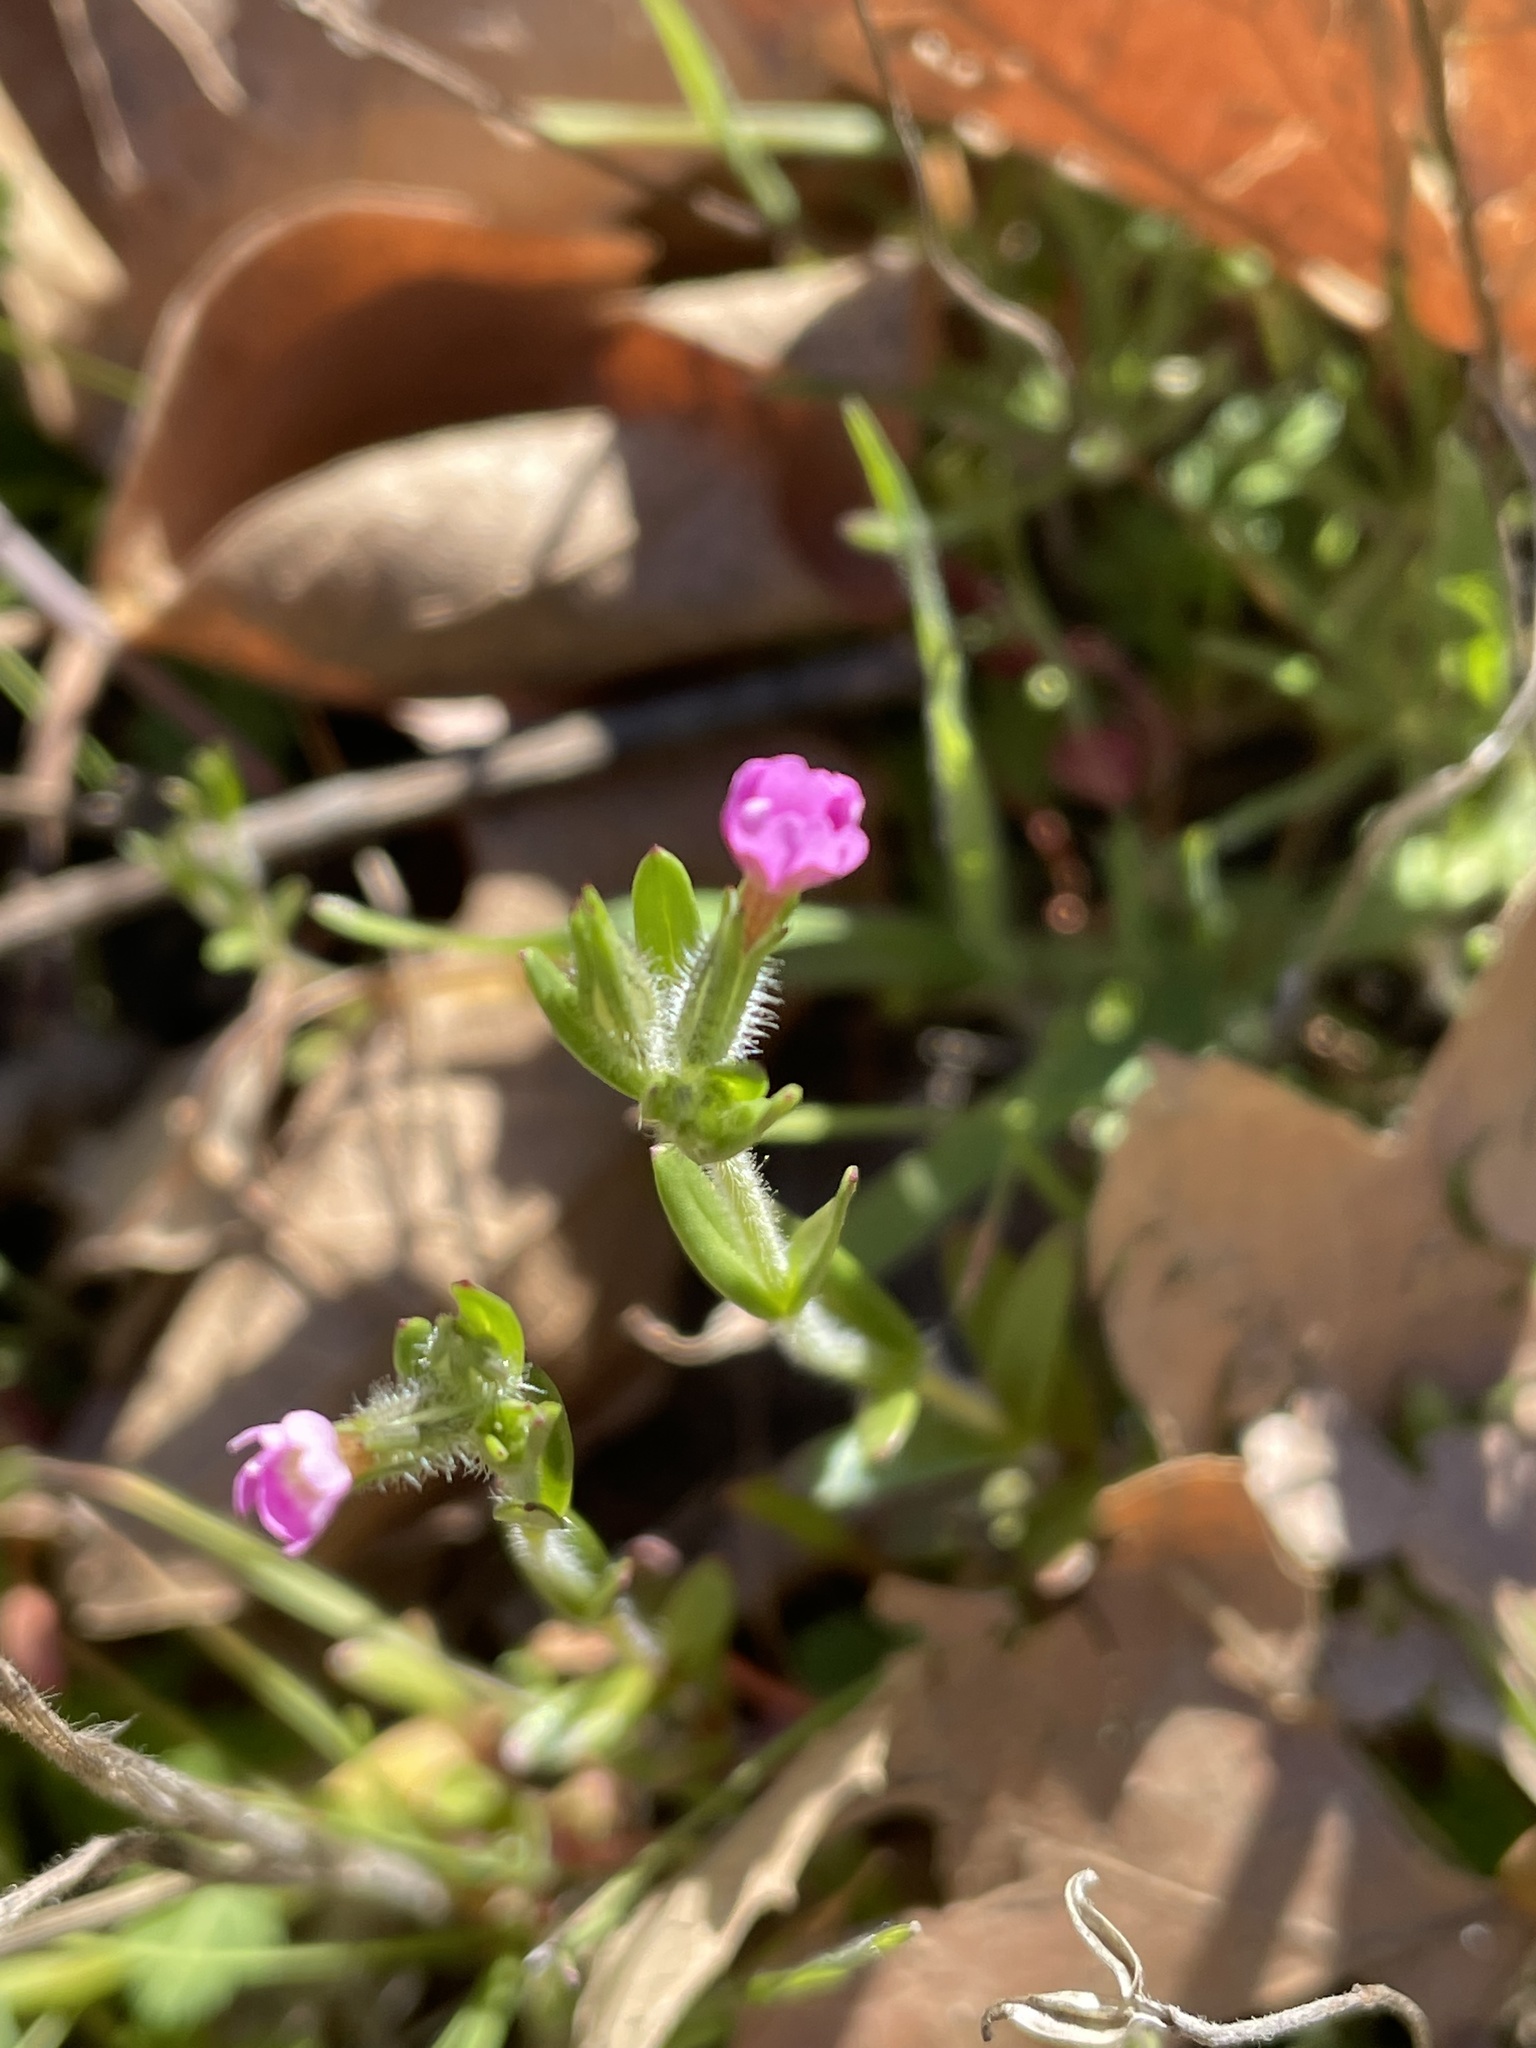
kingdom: Plantae
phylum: Tracheophyta
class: Magnoliopsida
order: Ericales
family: Polemoniaceae
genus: Phlox
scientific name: Phlox gracilis
